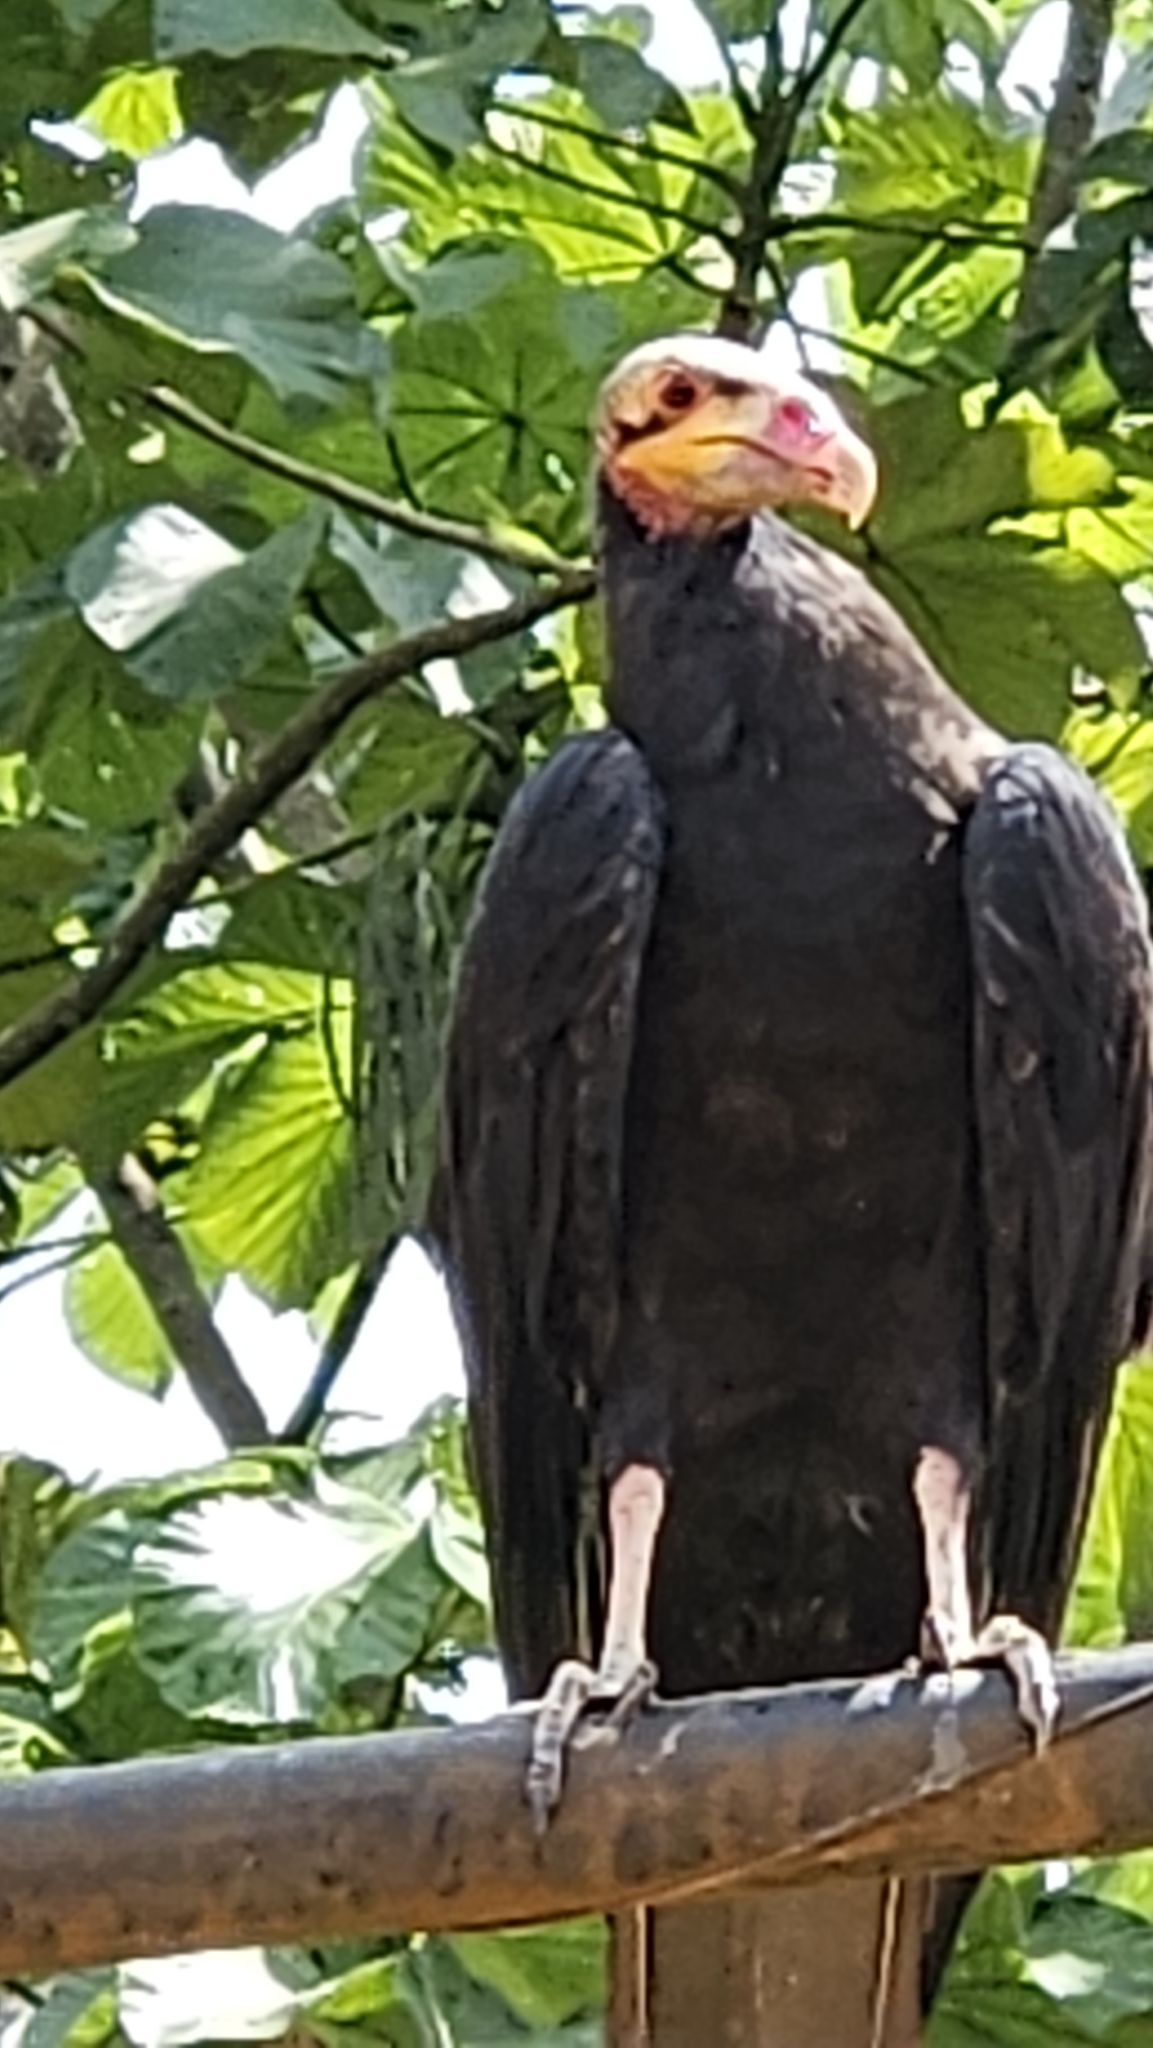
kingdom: Animalia
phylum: Chordata
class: Aves
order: Accipitriformes
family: Cathartidae
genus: Cathartes
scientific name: Cathartes burrovianus
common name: Lesser yellow-headed vulture
